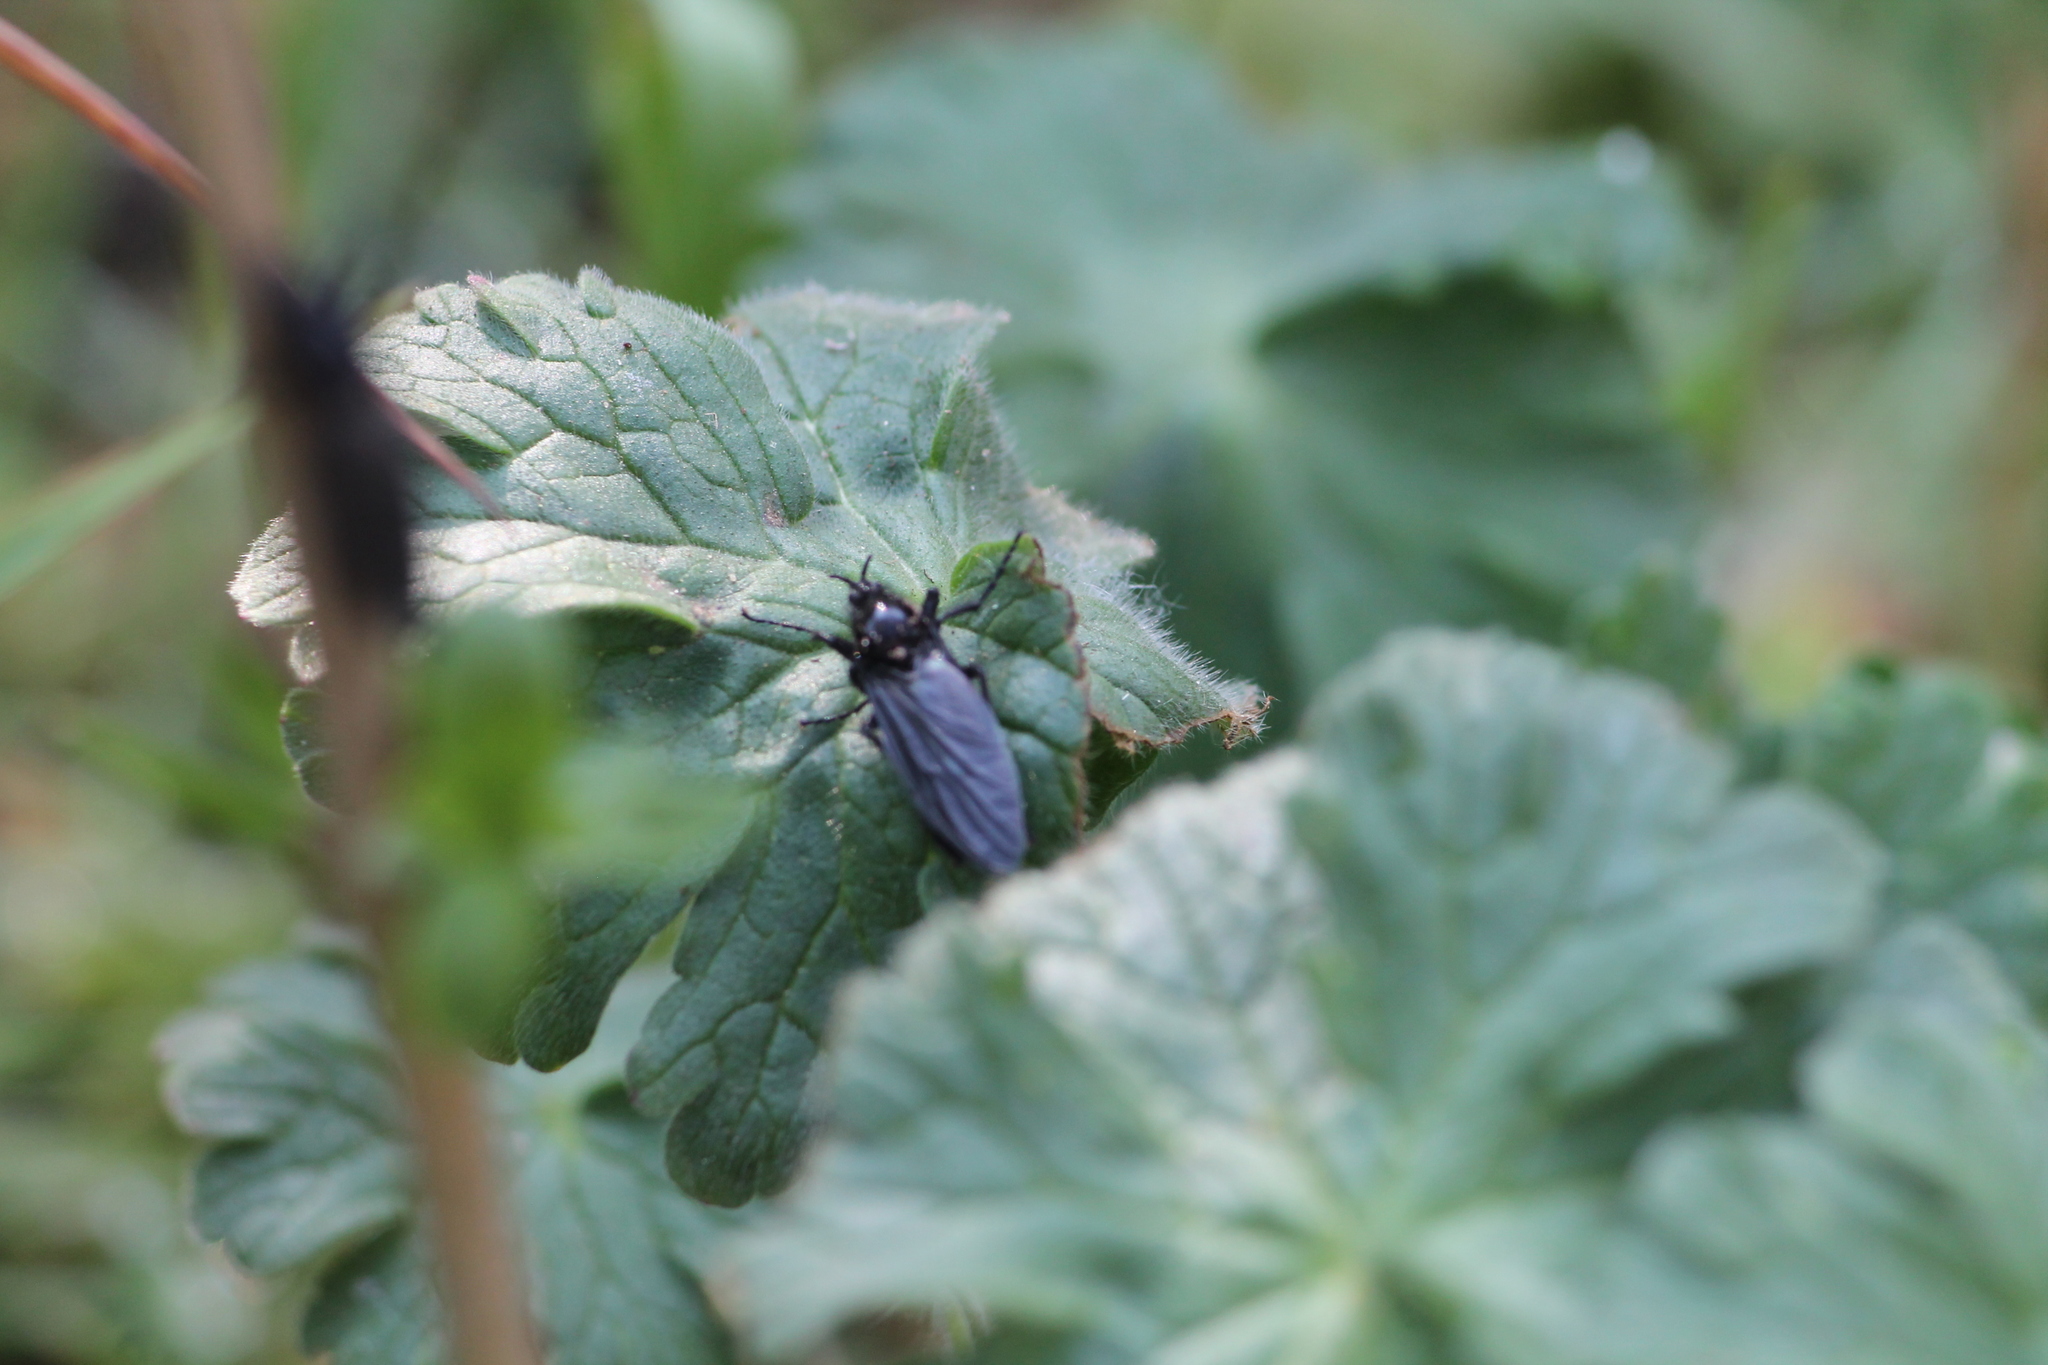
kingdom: Animalia
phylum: Arthropoda
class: Insecta
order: Diptera
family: Bibionidae
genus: Bibio
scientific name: Bibio marci
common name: St marks fly
